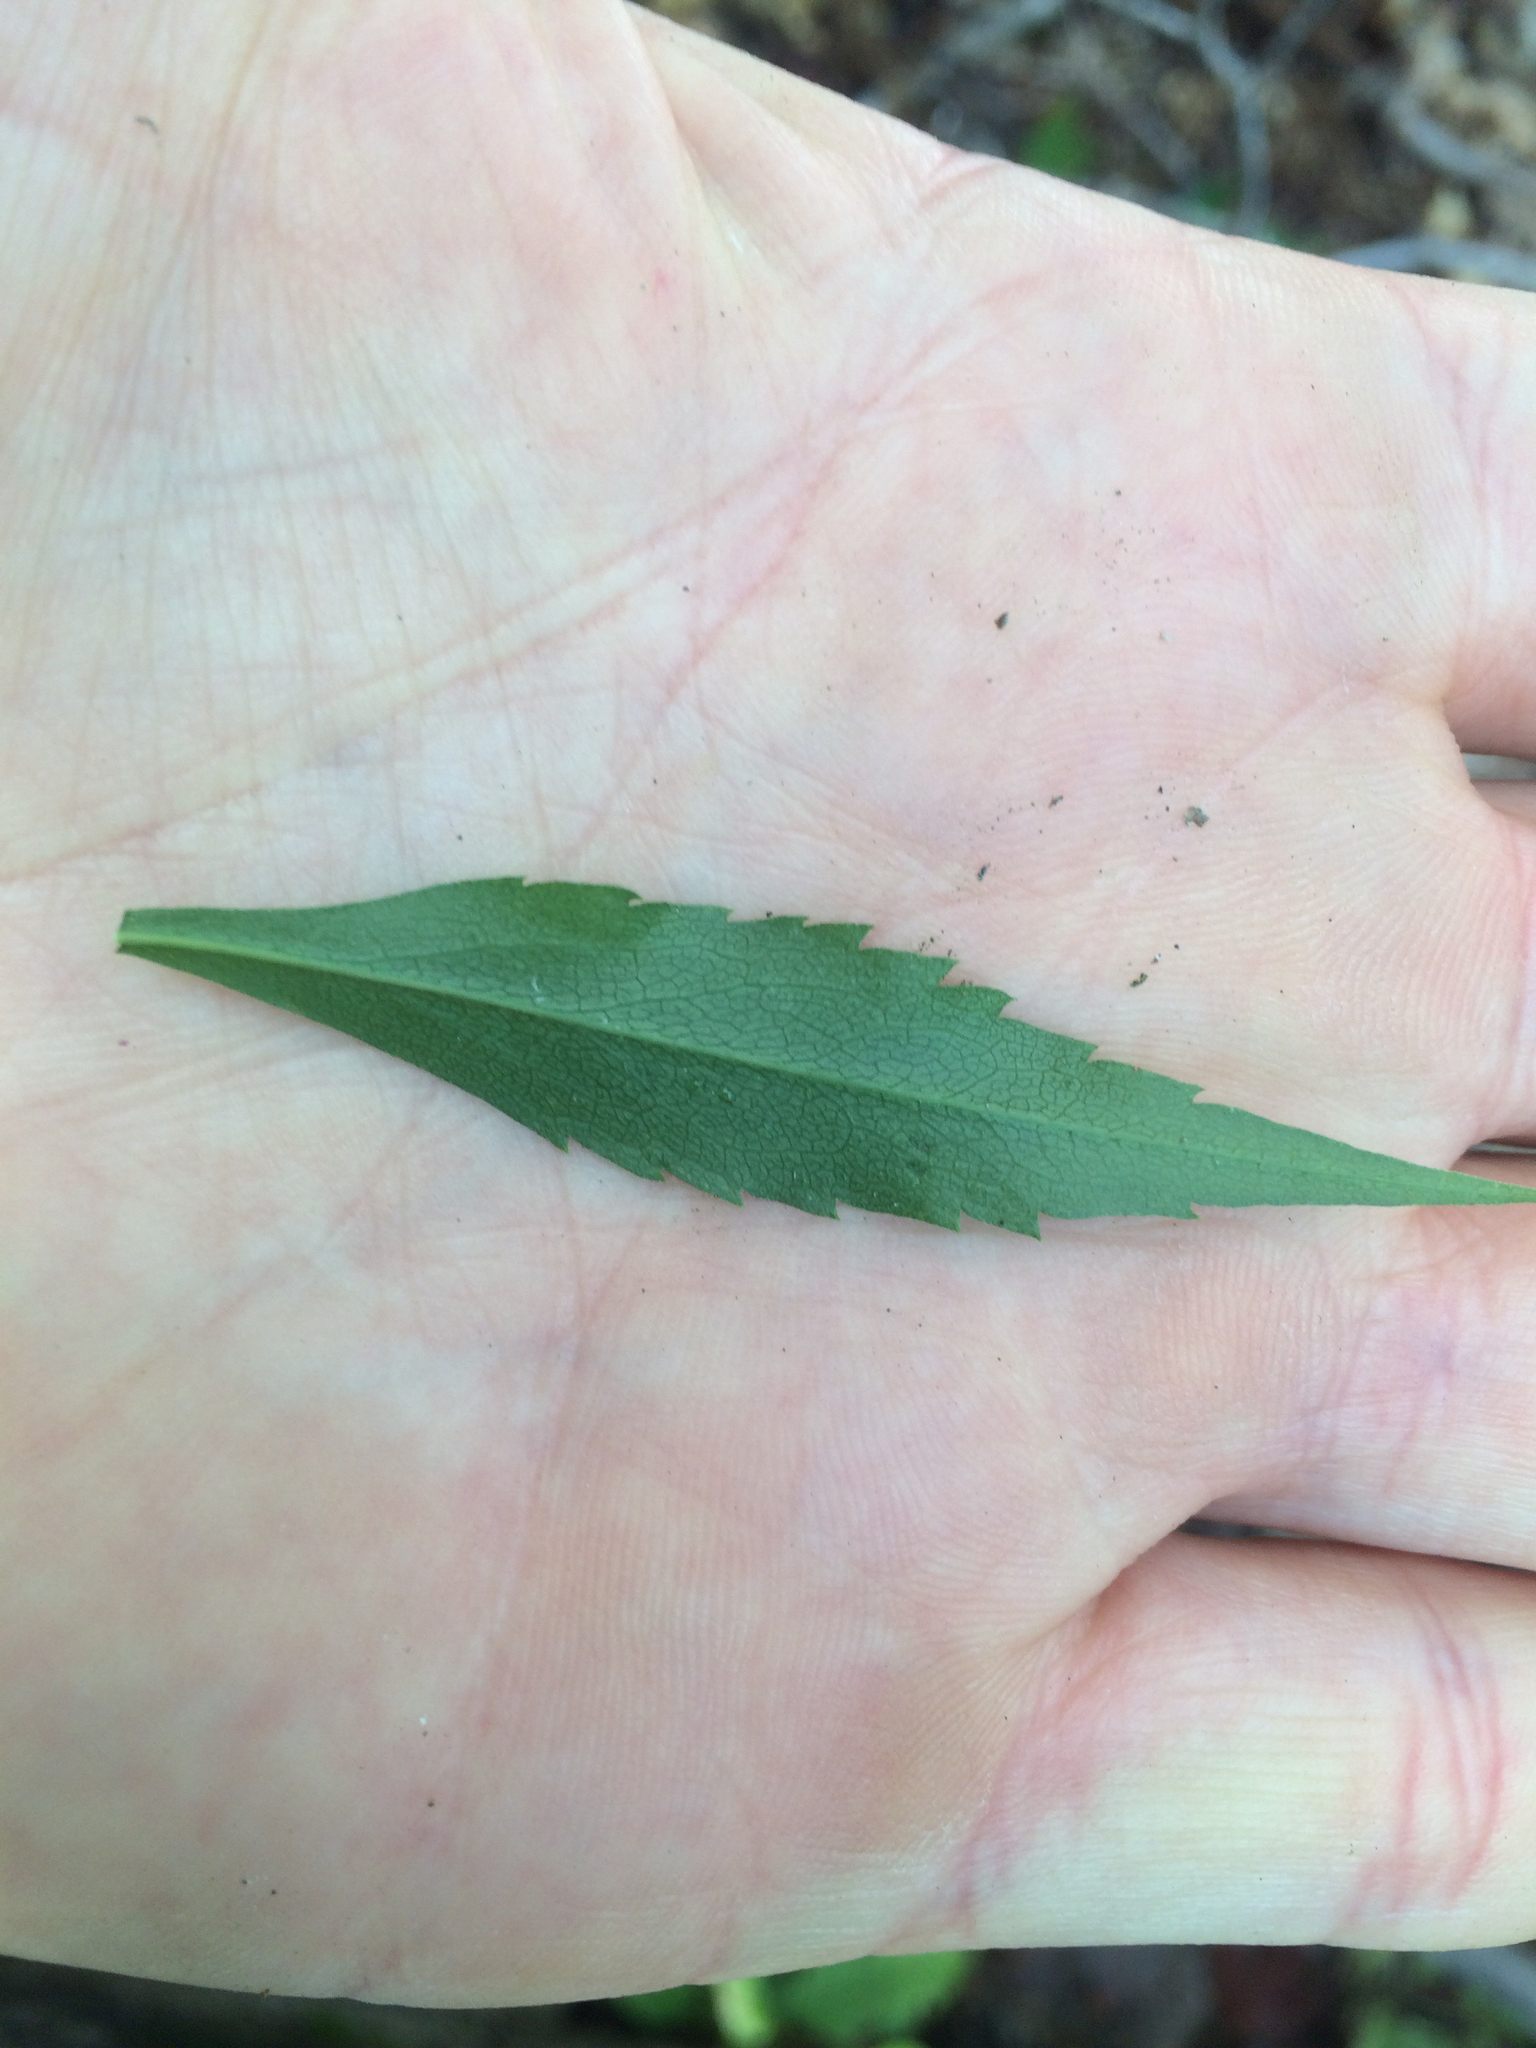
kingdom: Plantae
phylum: Tracheophyta
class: Magnoliopsida
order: Asterales
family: Asteraceae
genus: Solidago
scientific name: Solidago caesia
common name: Woodland goldenrod
